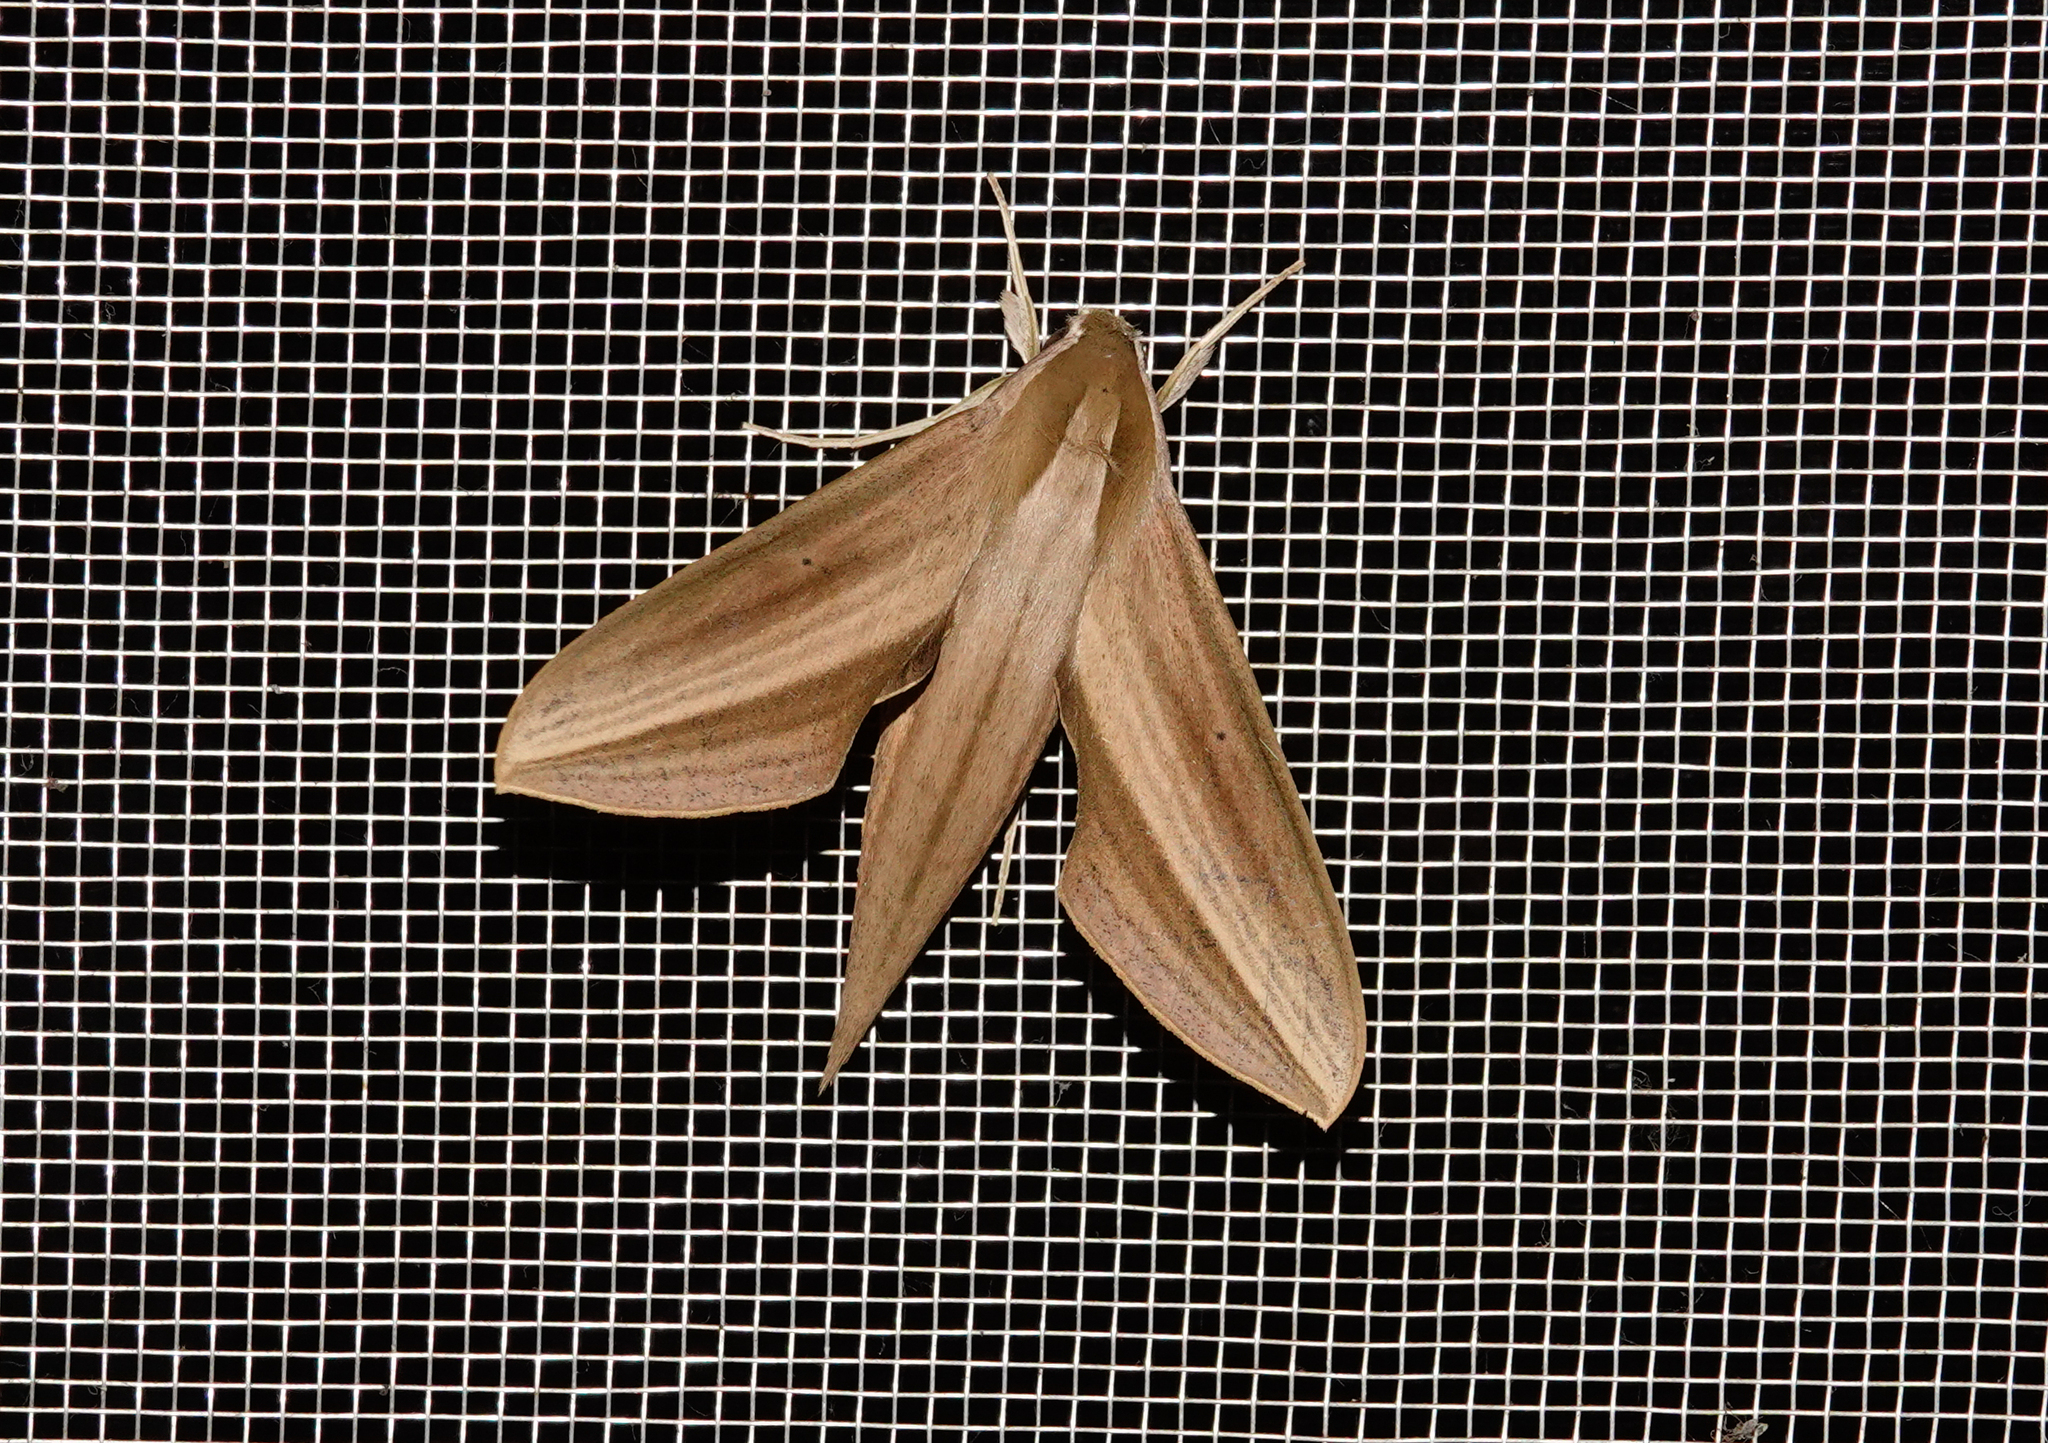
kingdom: Animalia
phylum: Arthropoda
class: Insecta
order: Lepidoptera
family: Sphingidae
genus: Xylophanes
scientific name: Xylophanes loelia
